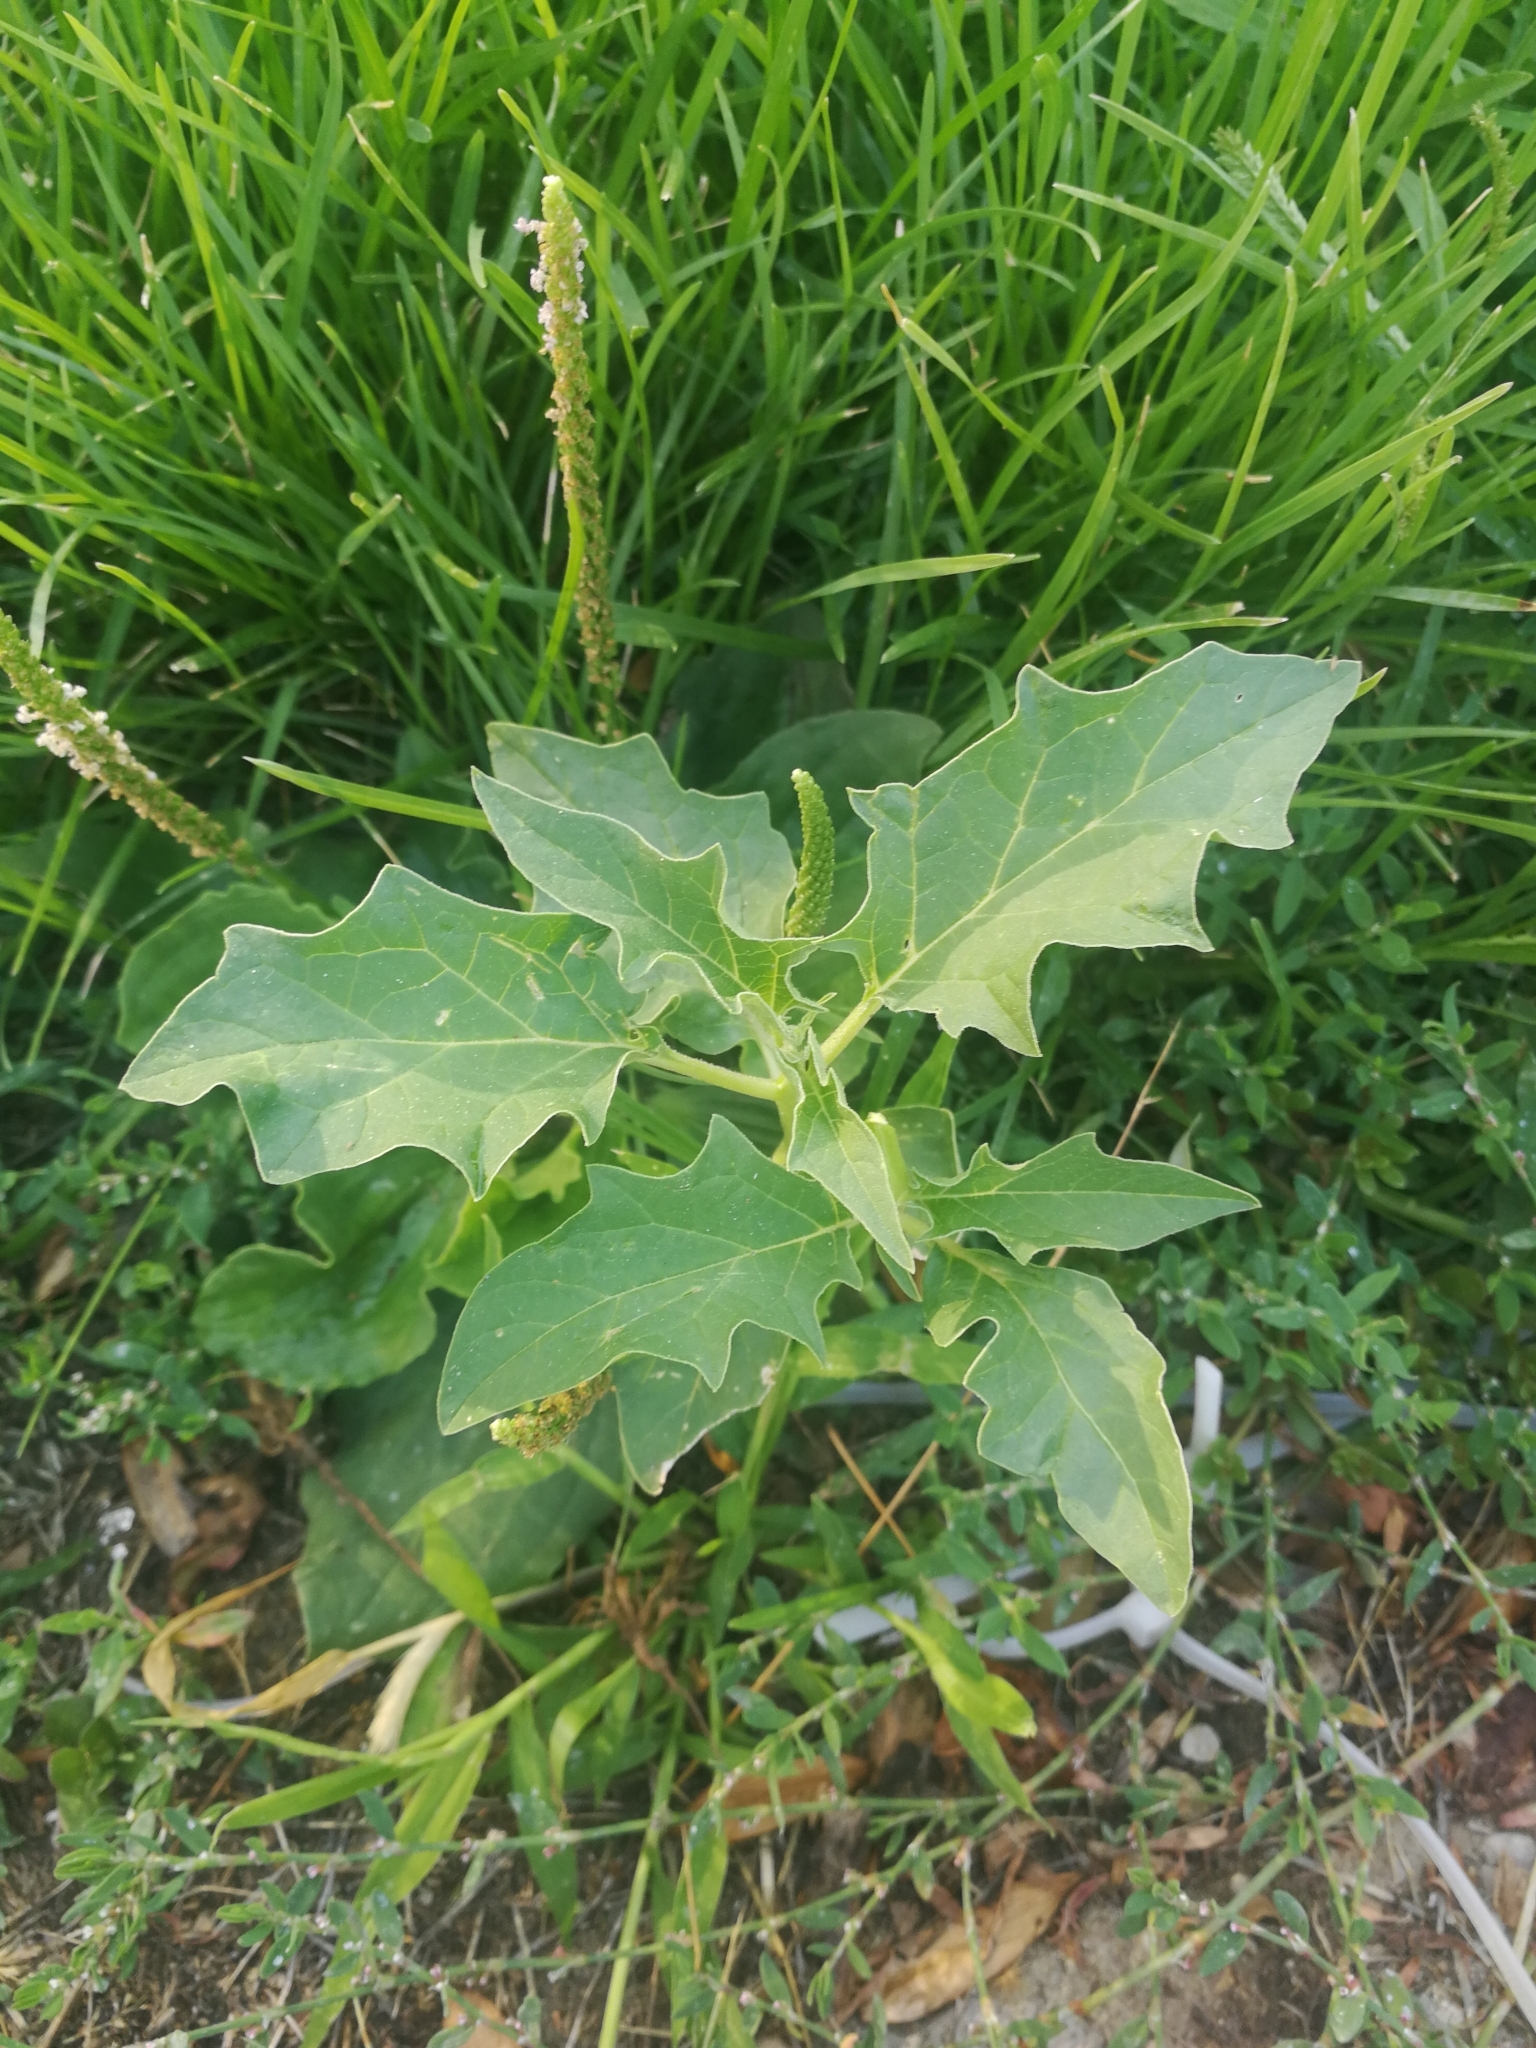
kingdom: Plantae
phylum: Tracheophyta
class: Magnoliopsida
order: Solanales
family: Solanaceae
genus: Datura
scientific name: Datura stramonium
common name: Thorn-apple
